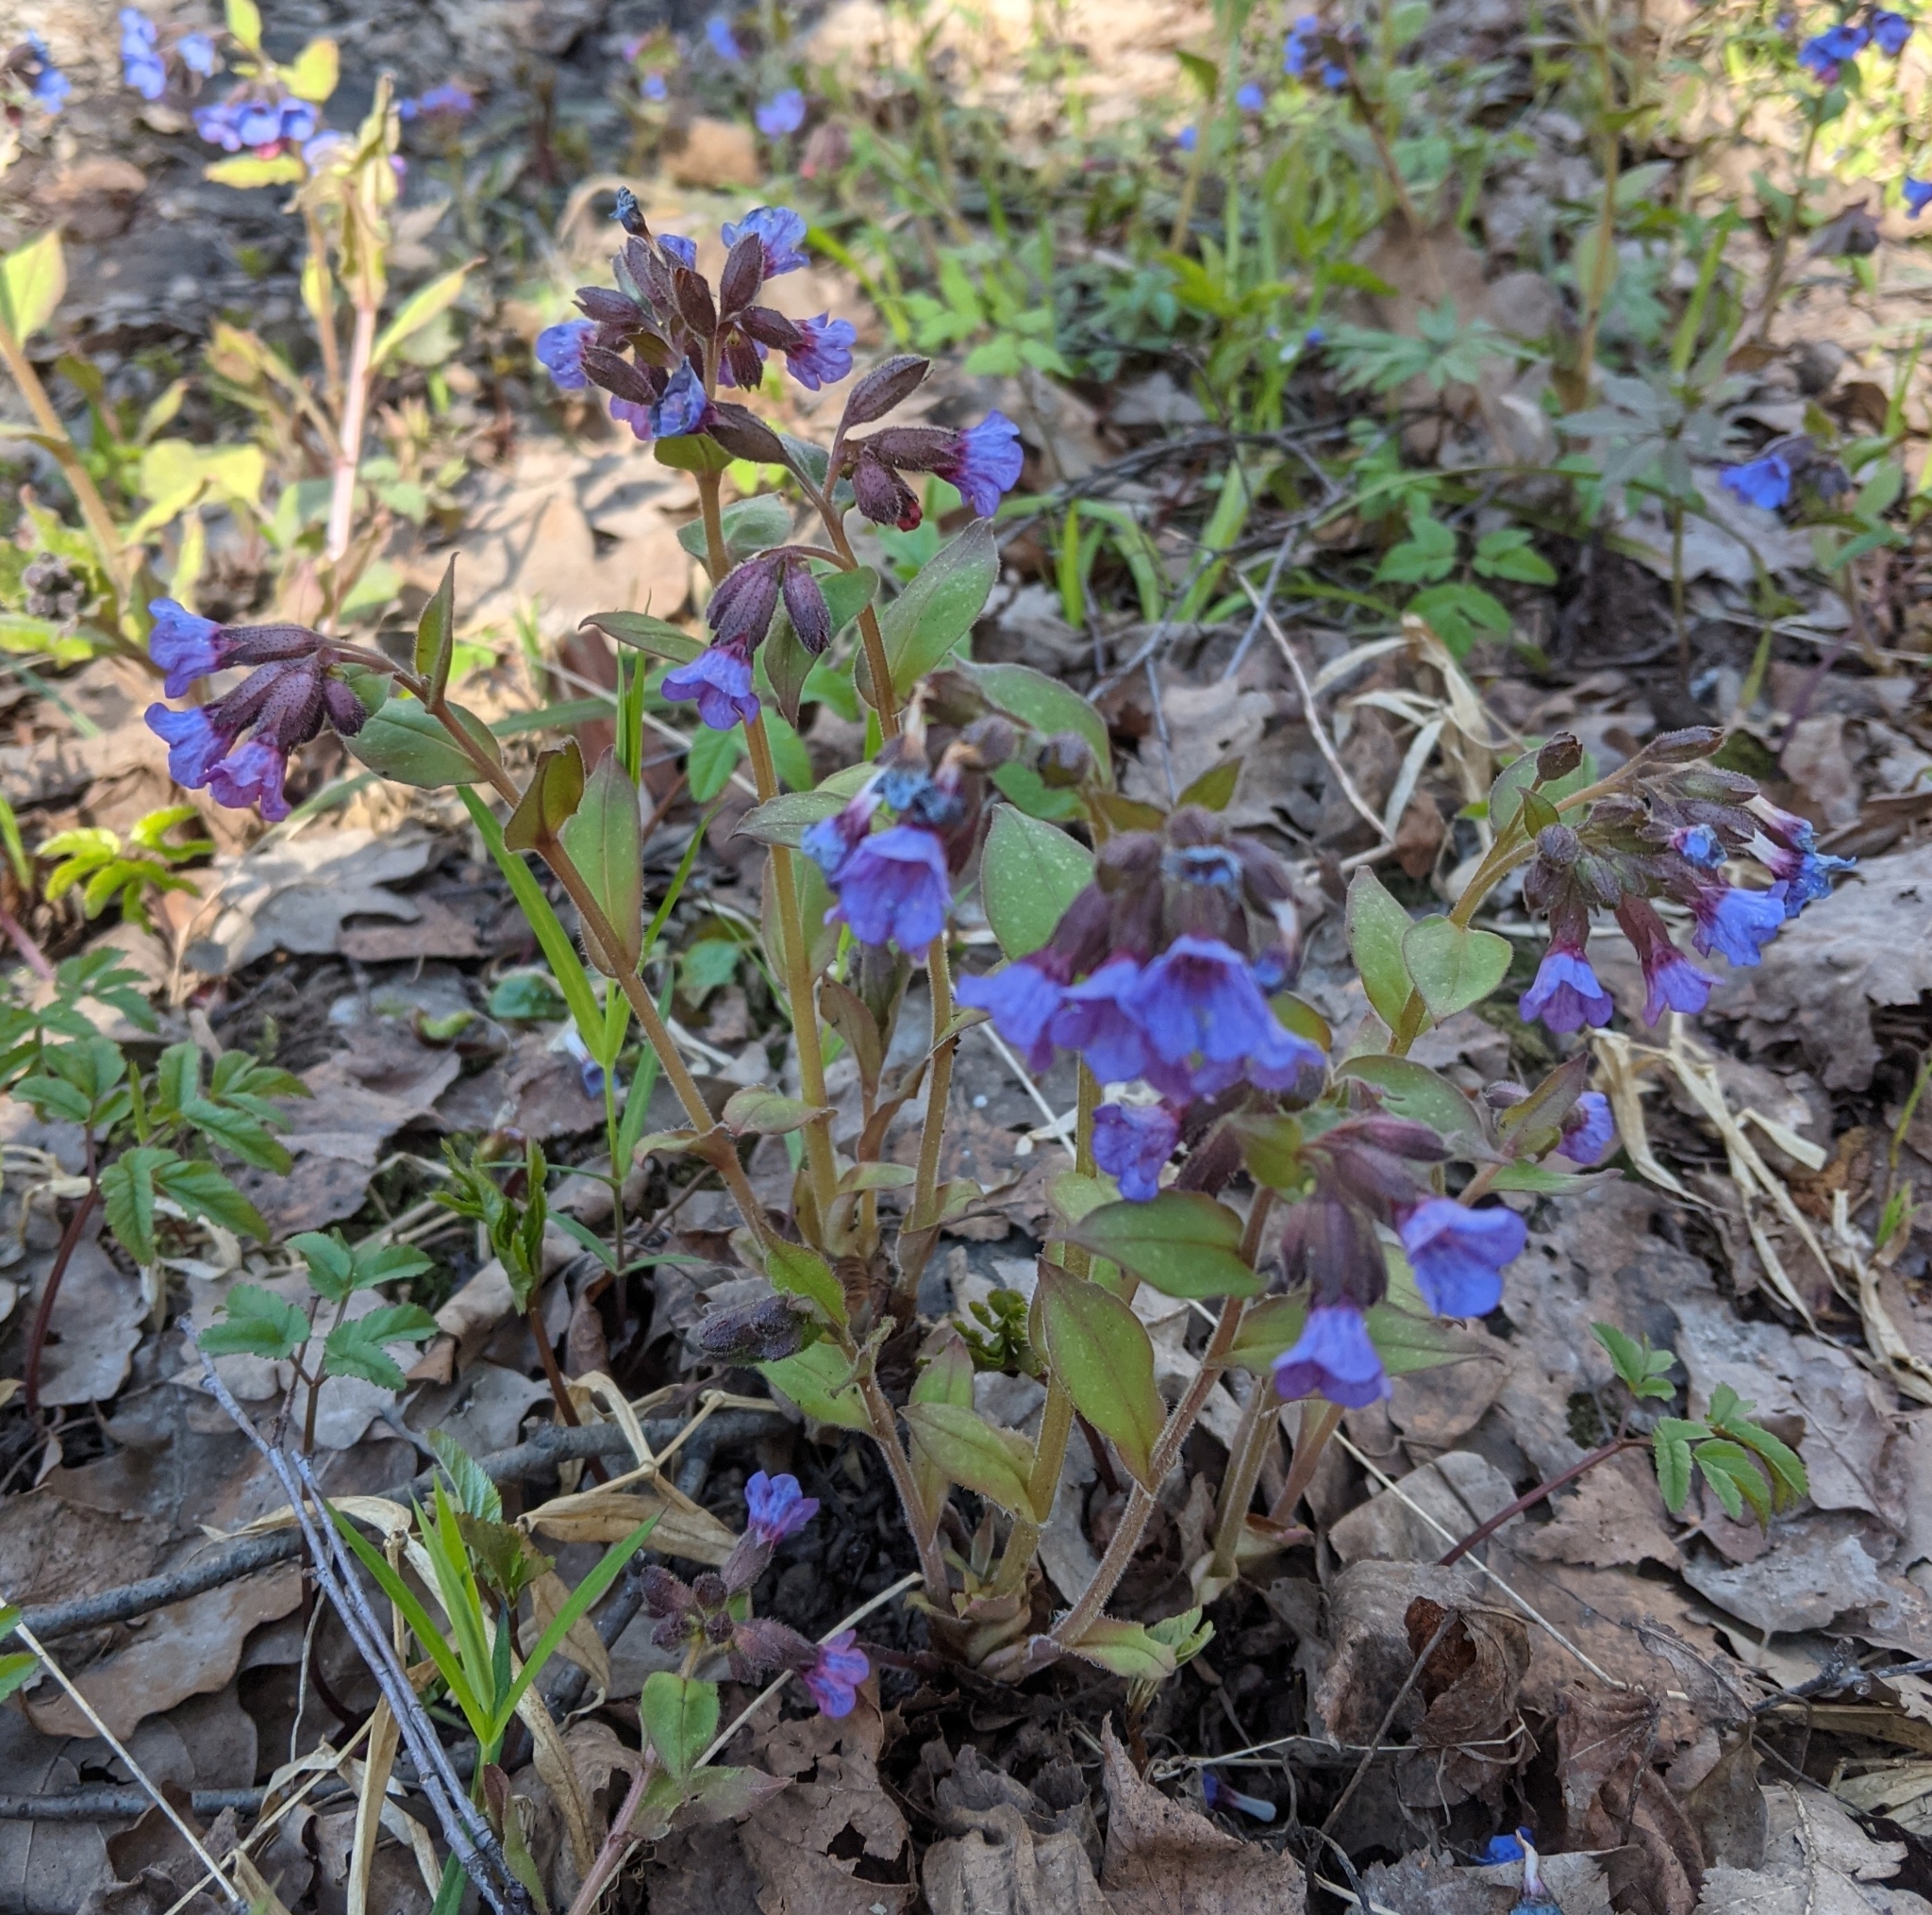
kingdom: Plantae
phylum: Tracheophyta
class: Magnoliopsida
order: Boraginales
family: Boraginaceae
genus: Pulmonaria
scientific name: Pulmonaria obscura
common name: Suffolk lungwort
